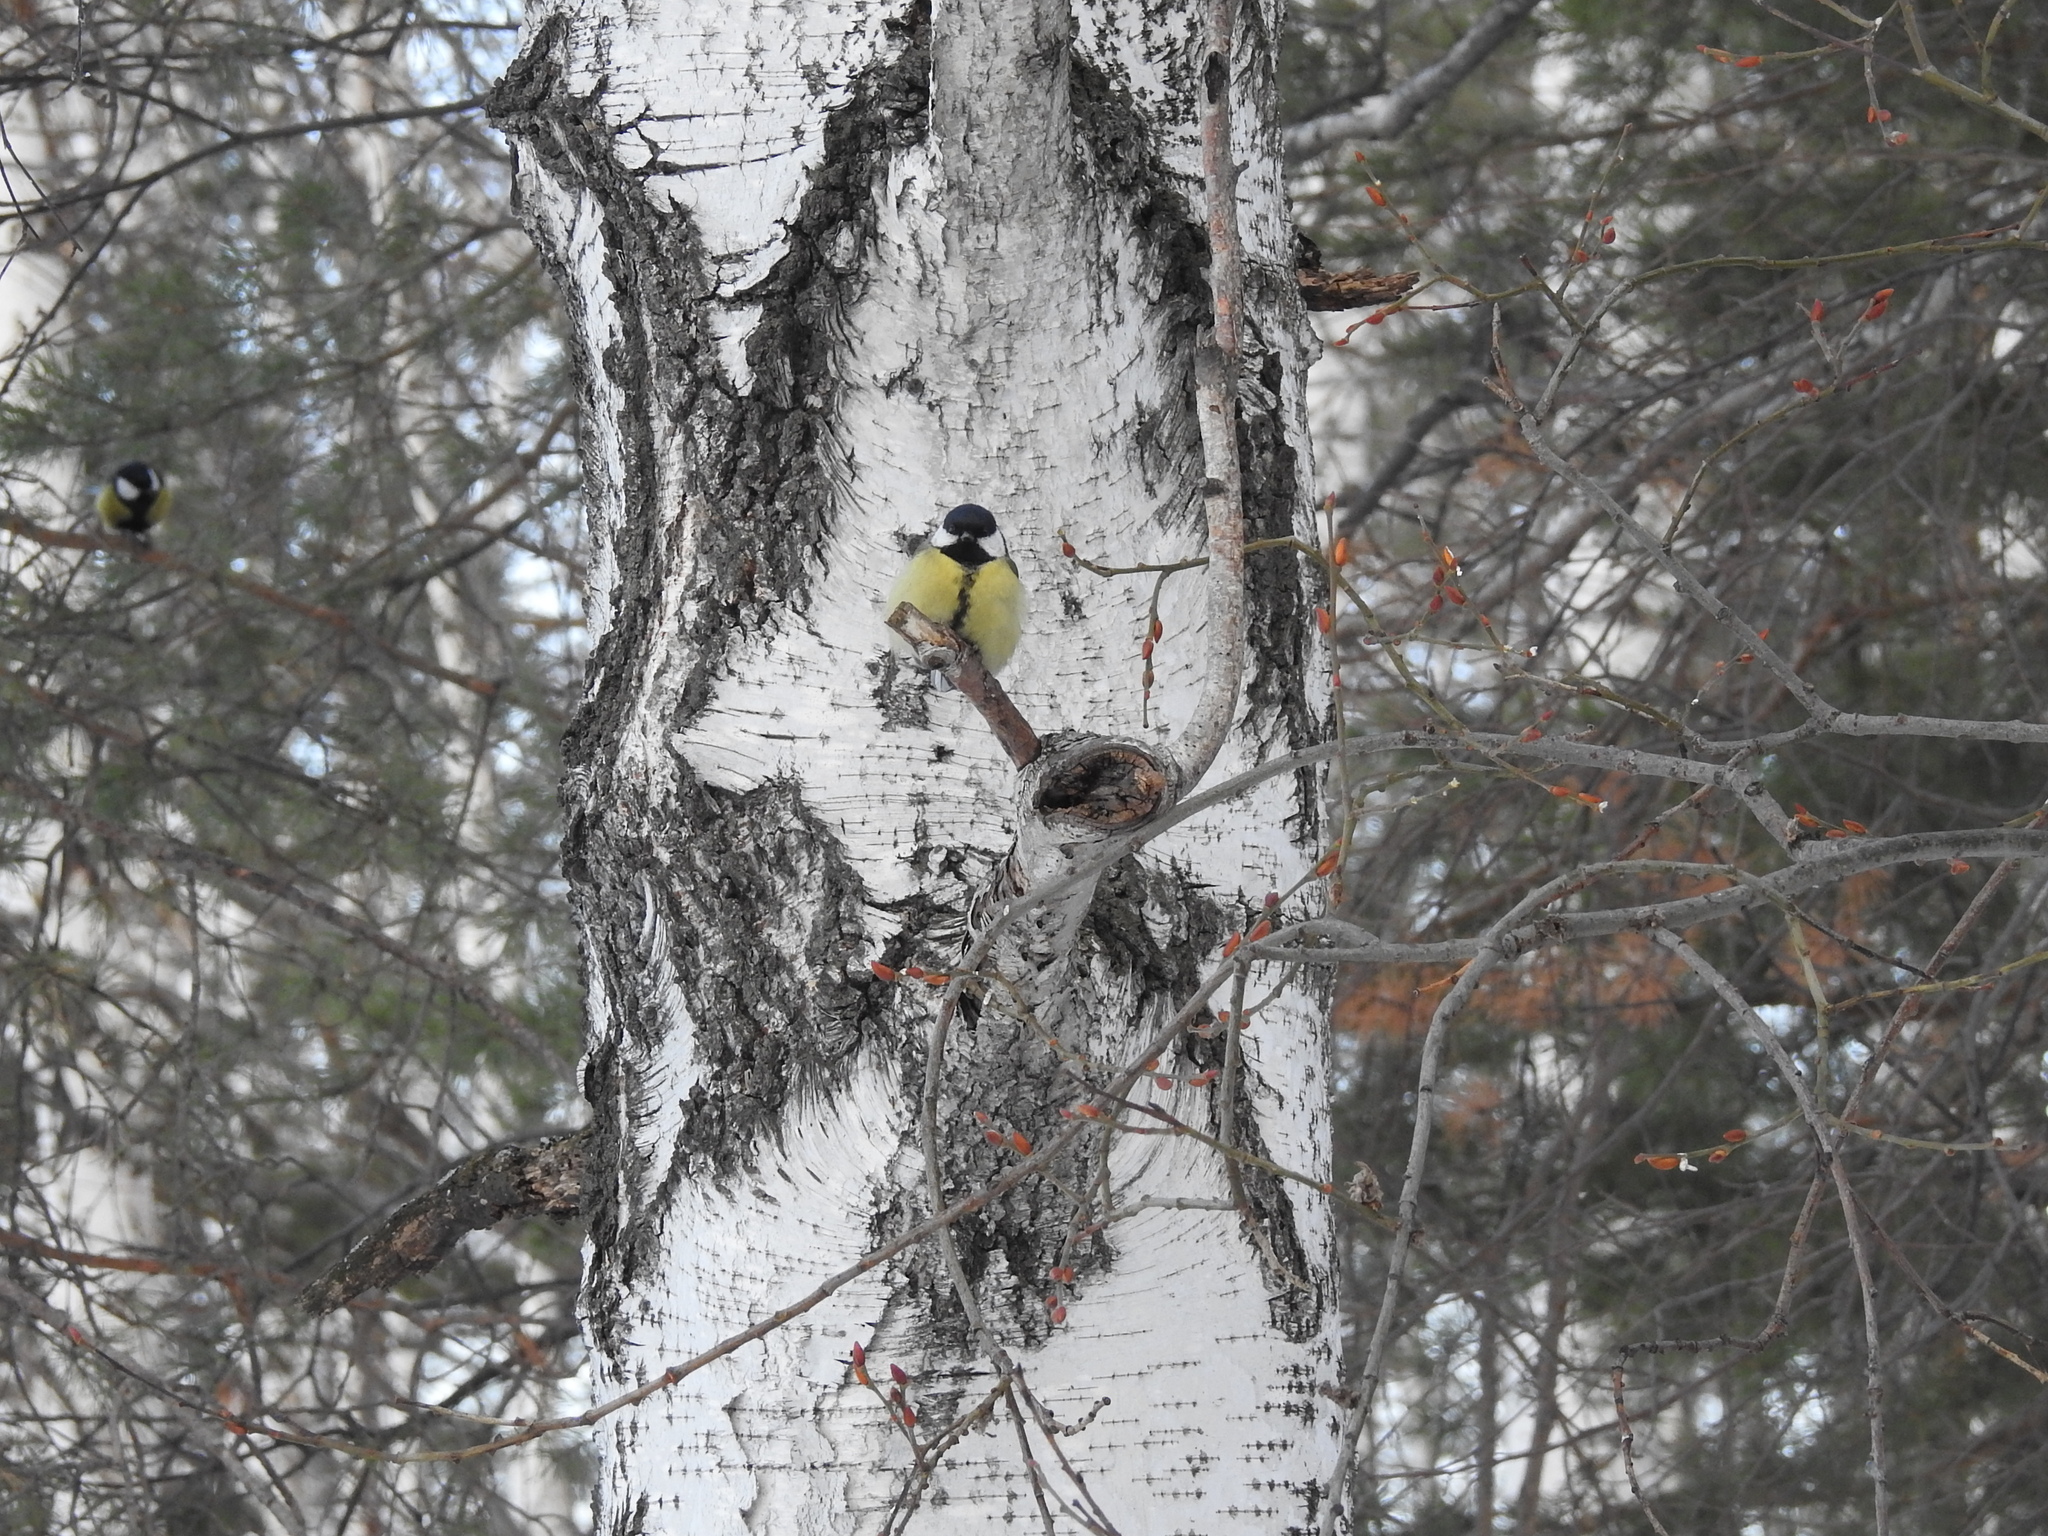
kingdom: Animalia
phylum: Chordata
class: Aves
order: Passeriformes
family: Paridae
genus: Parus
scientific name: Parus major
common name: Great tit
